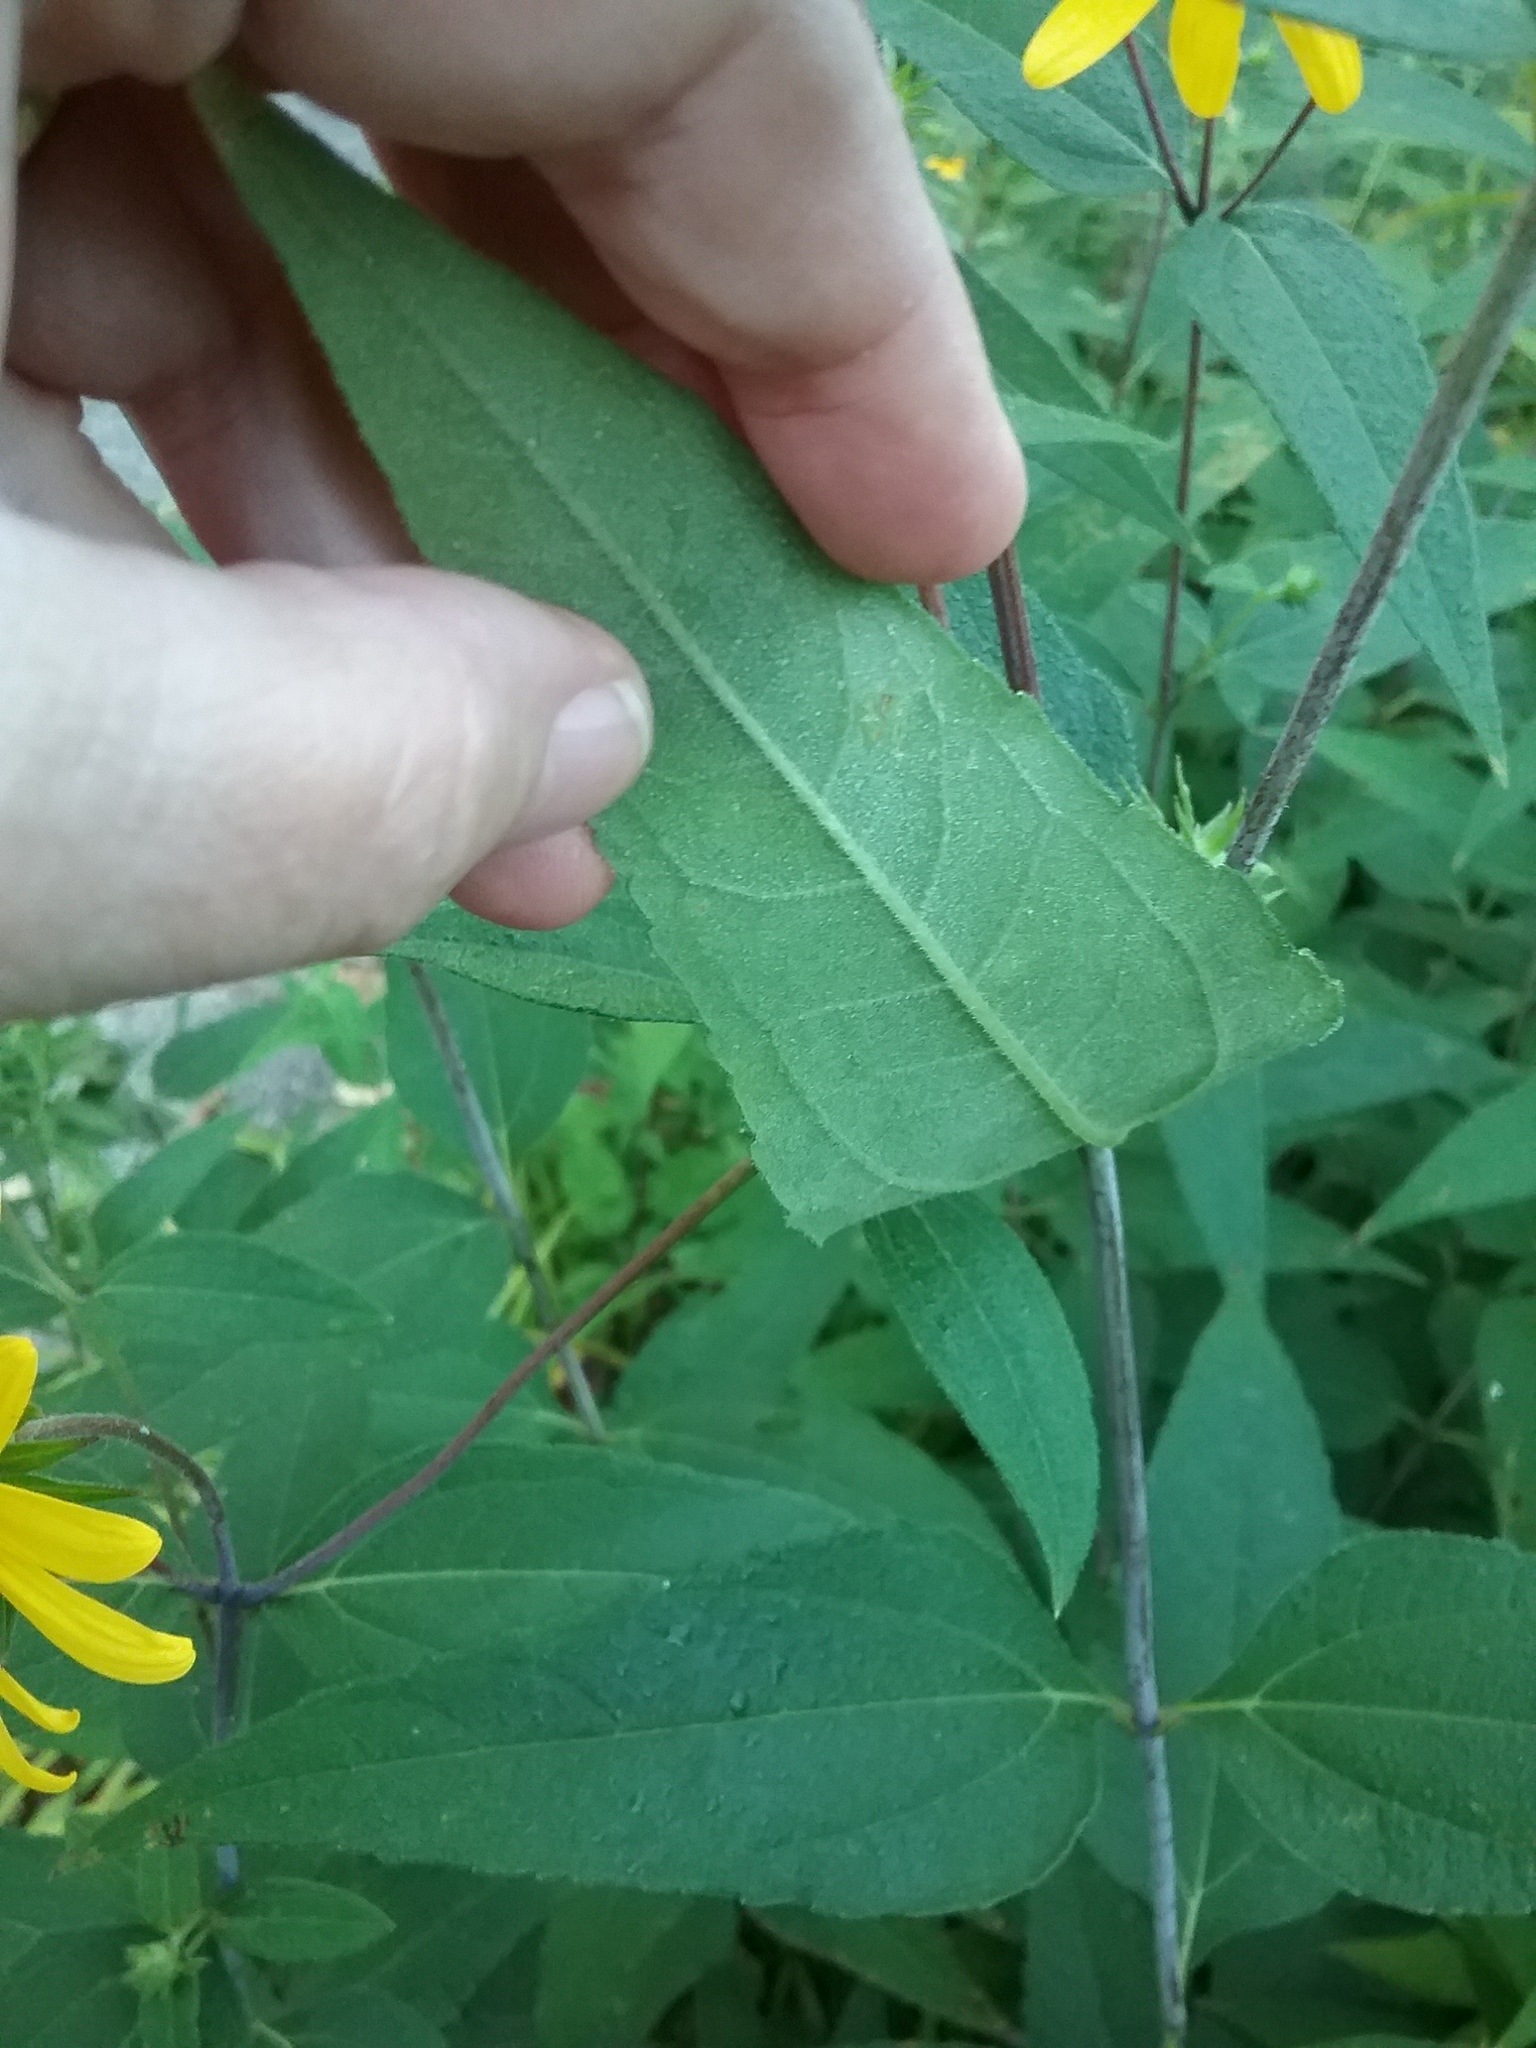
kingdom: Plantae
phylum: Tracheophyta
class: Magnoliopsida
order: Asterales
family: Asteraceae
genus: Helianthus
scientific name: Helianthus divaricatus
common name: Divergent sunflower
